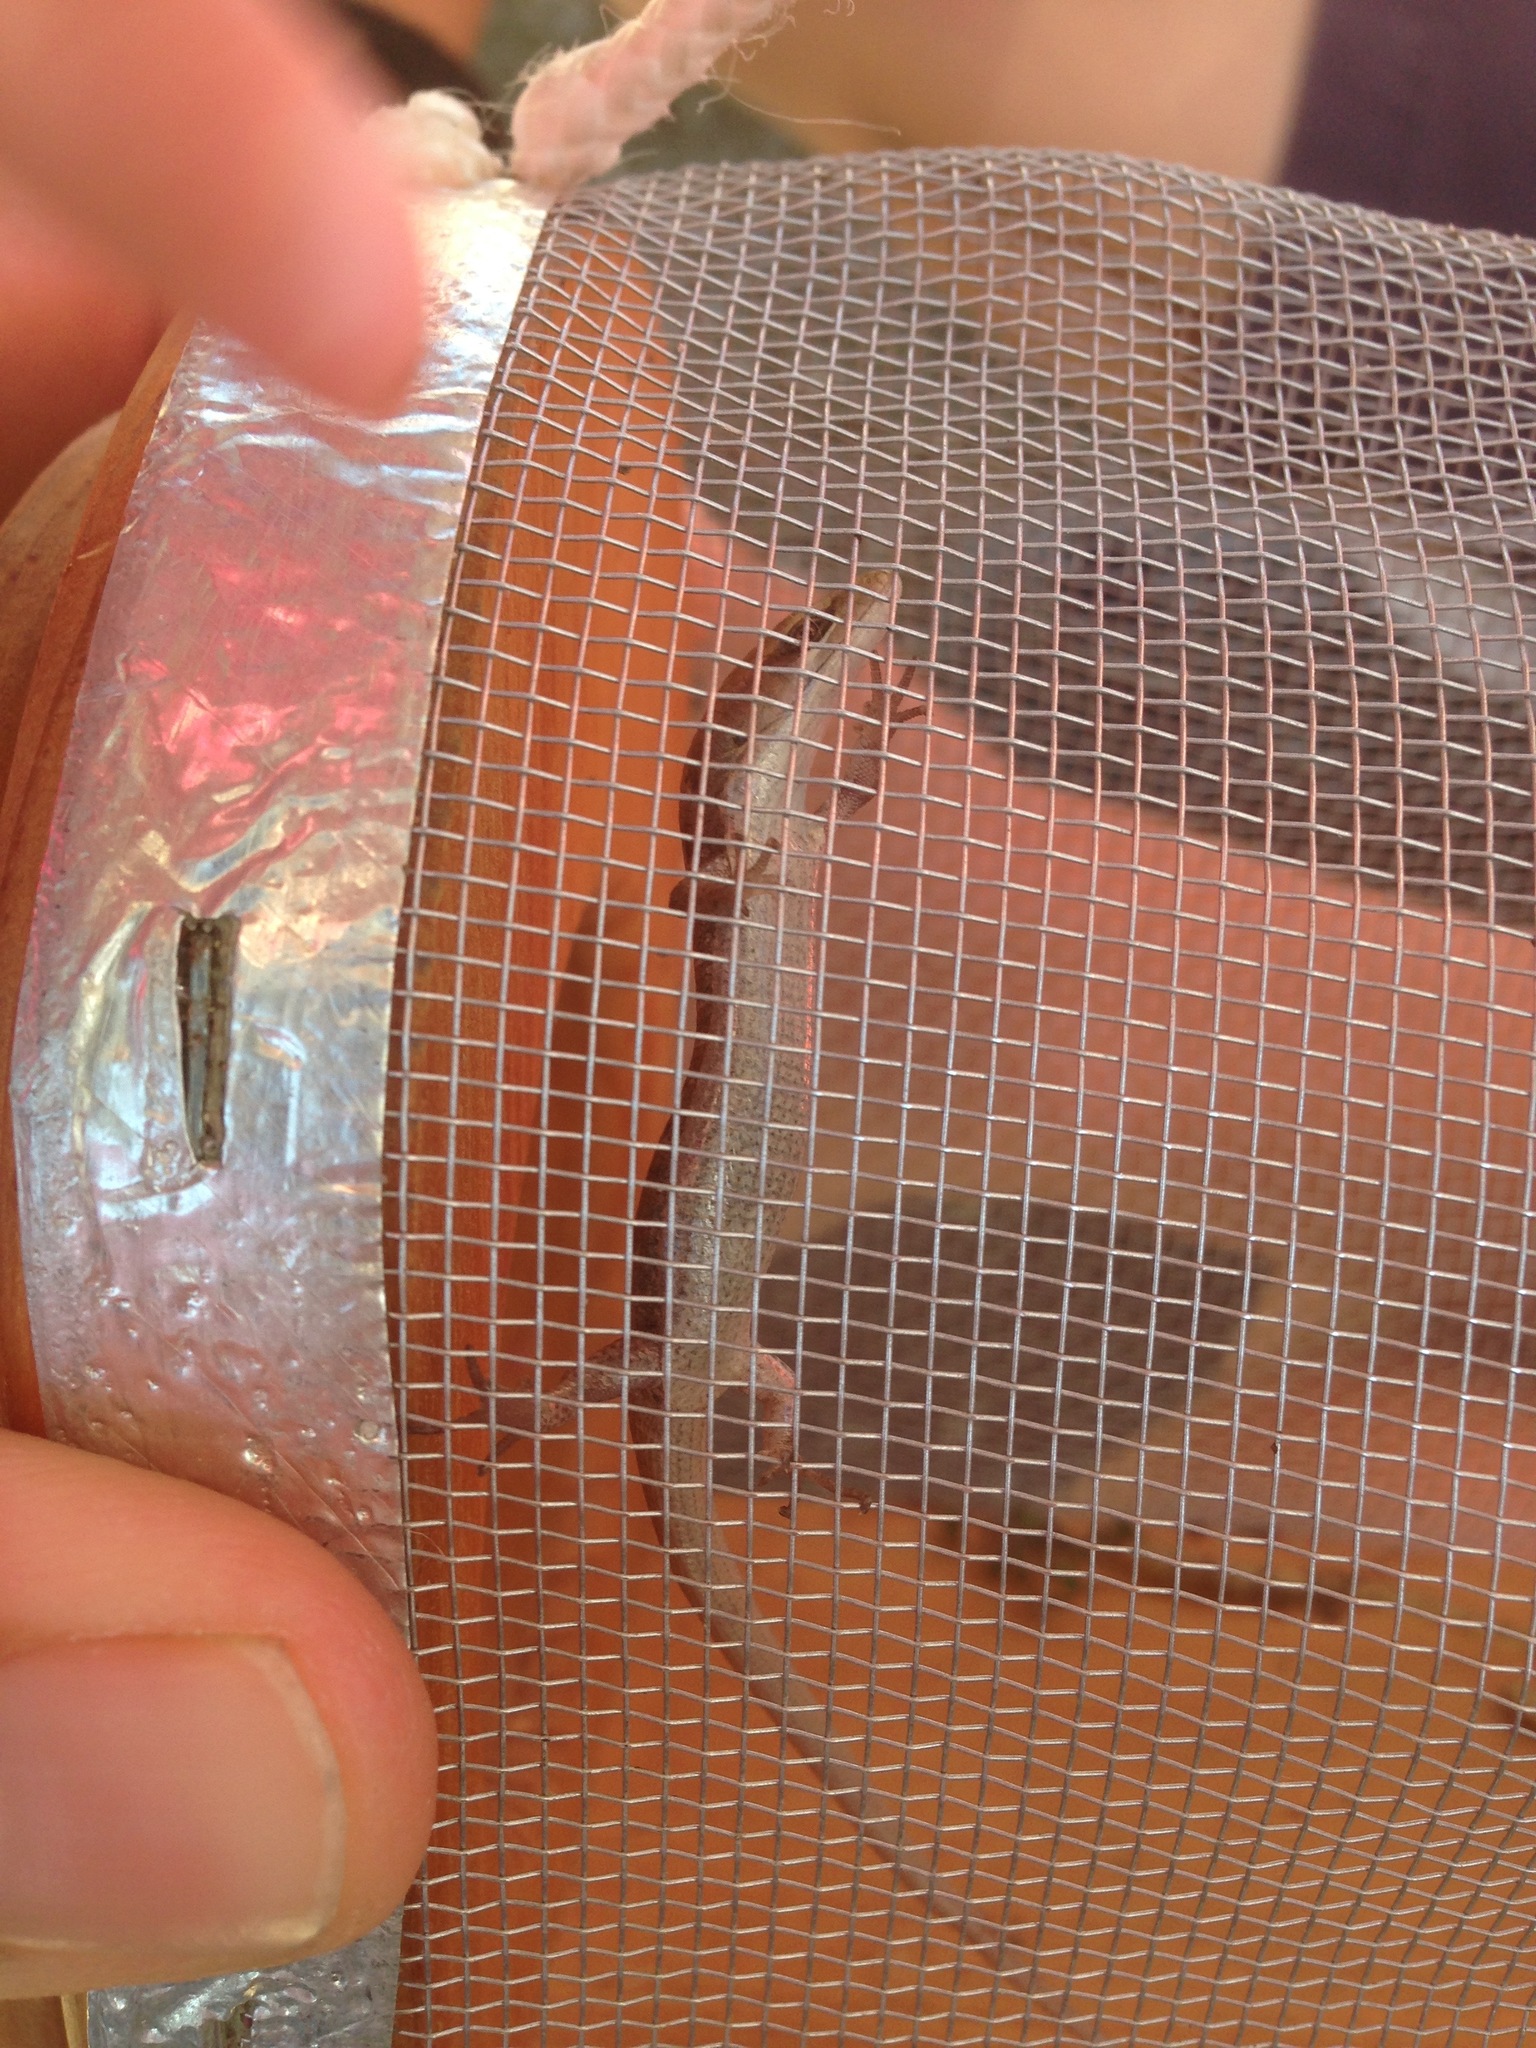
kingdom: Animalia
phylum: Chordata
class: Squamata
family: Anguidae
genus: Elgaria
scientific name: Elgaria multicarinata
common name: Southern alligator lizard
